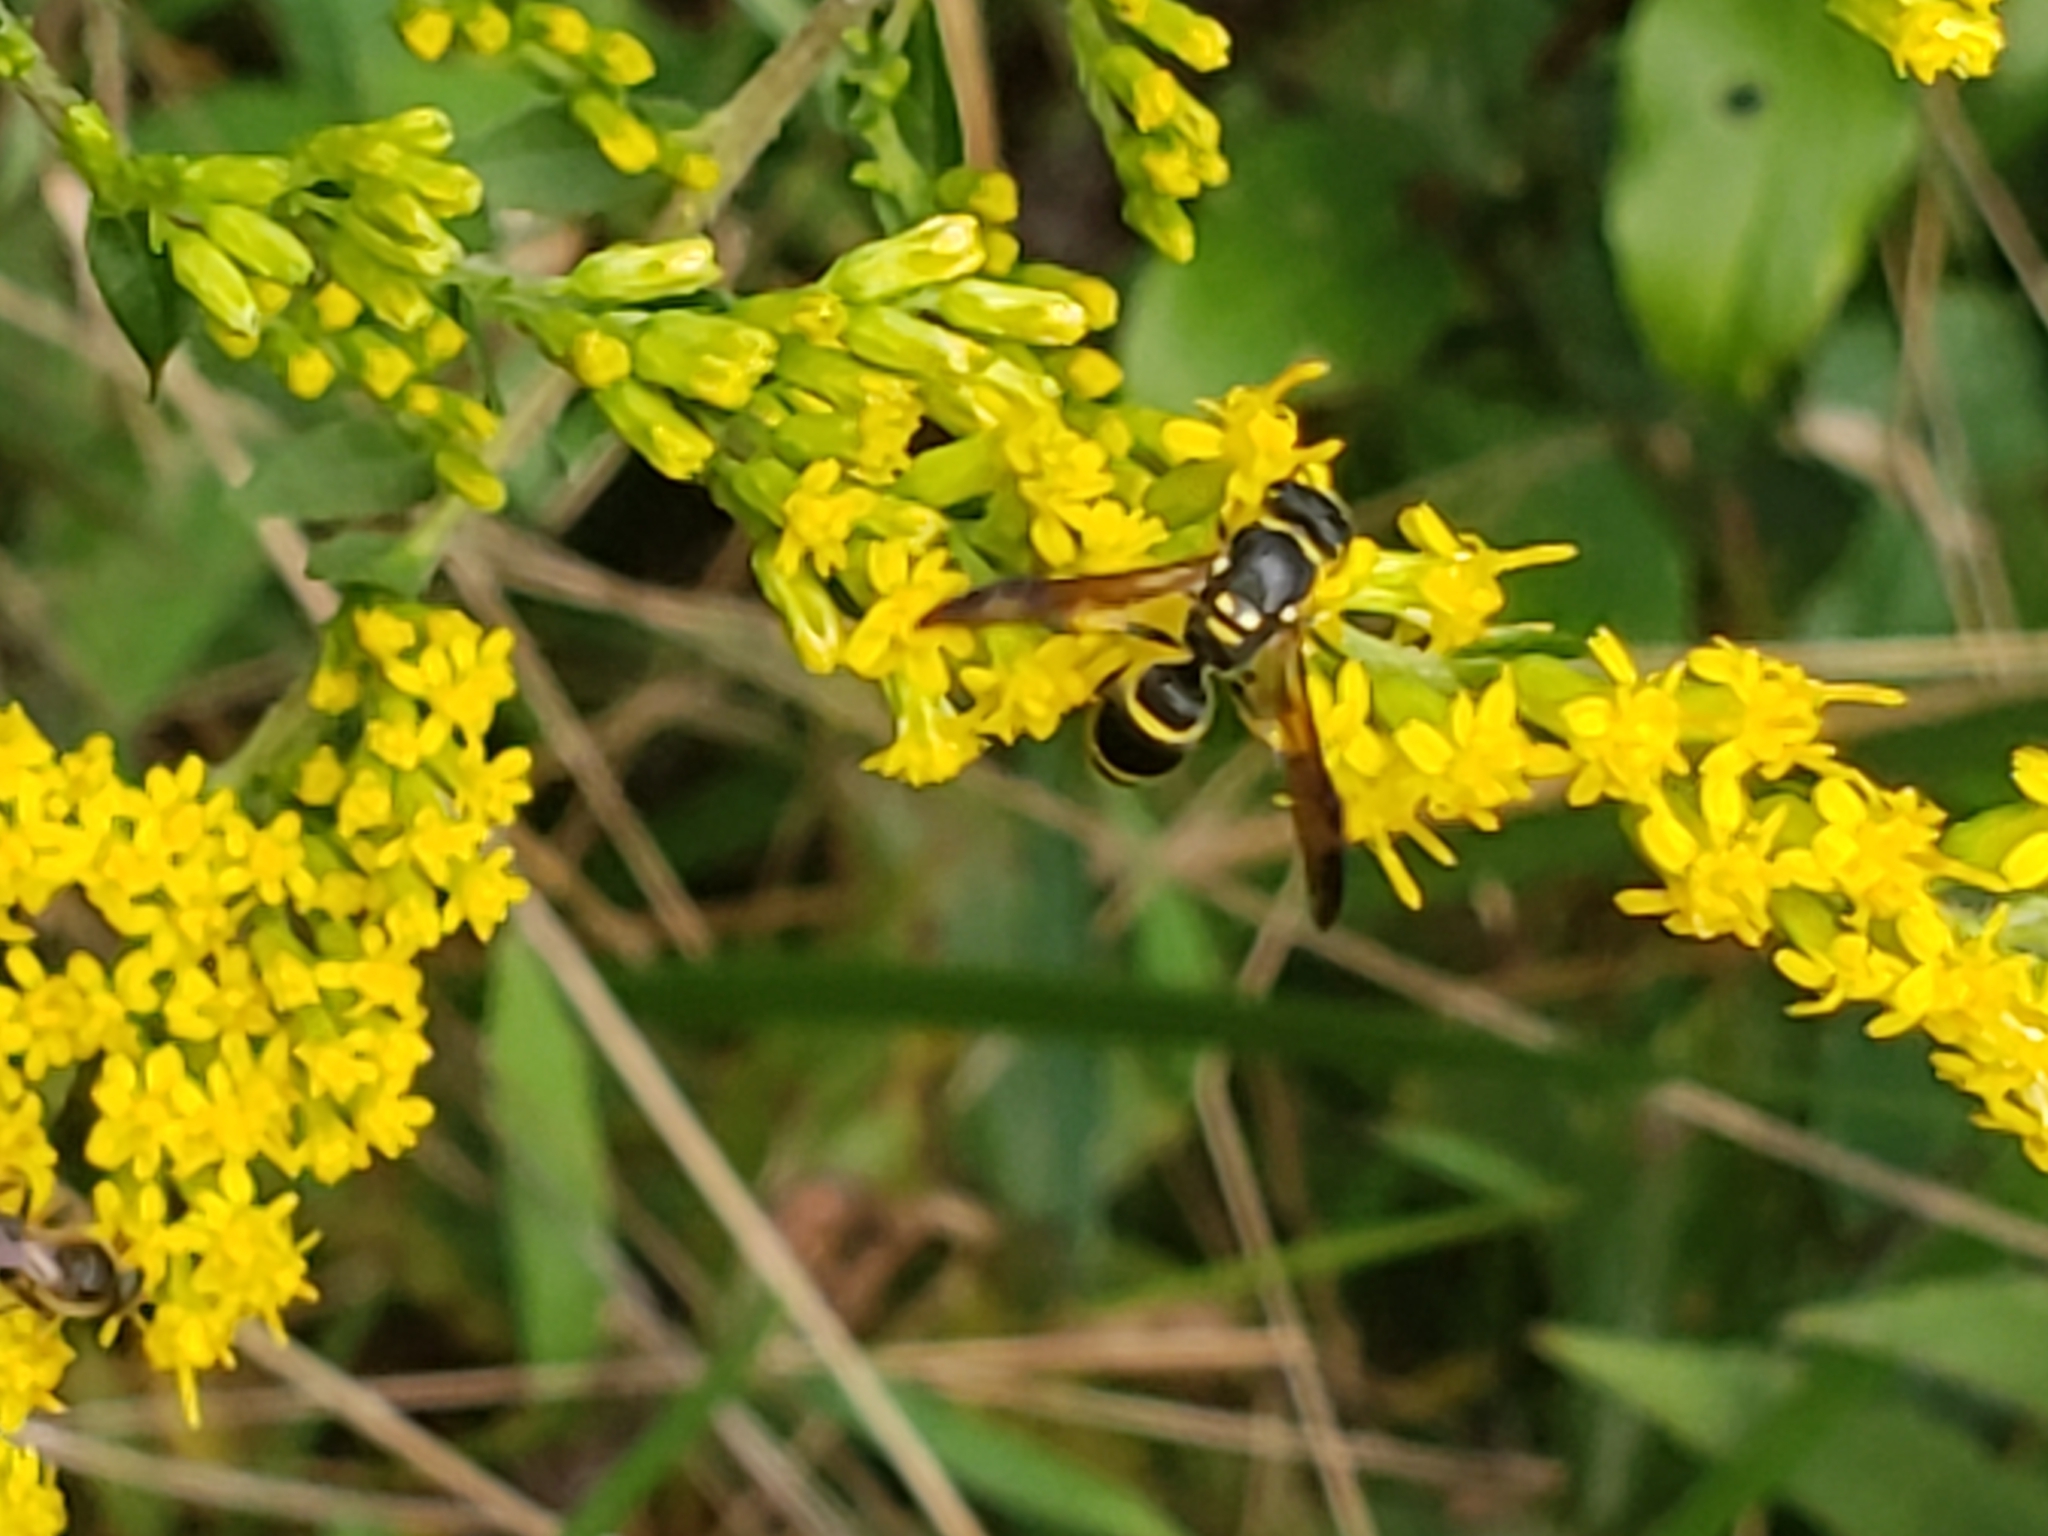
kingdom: Animalia
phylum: Arthropoda
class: Insecta
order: Hymenoptera
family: Vespidae
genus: Ancistrocerus
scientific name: Ancistrocerus adiabatus
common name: Bramble mason wasp
